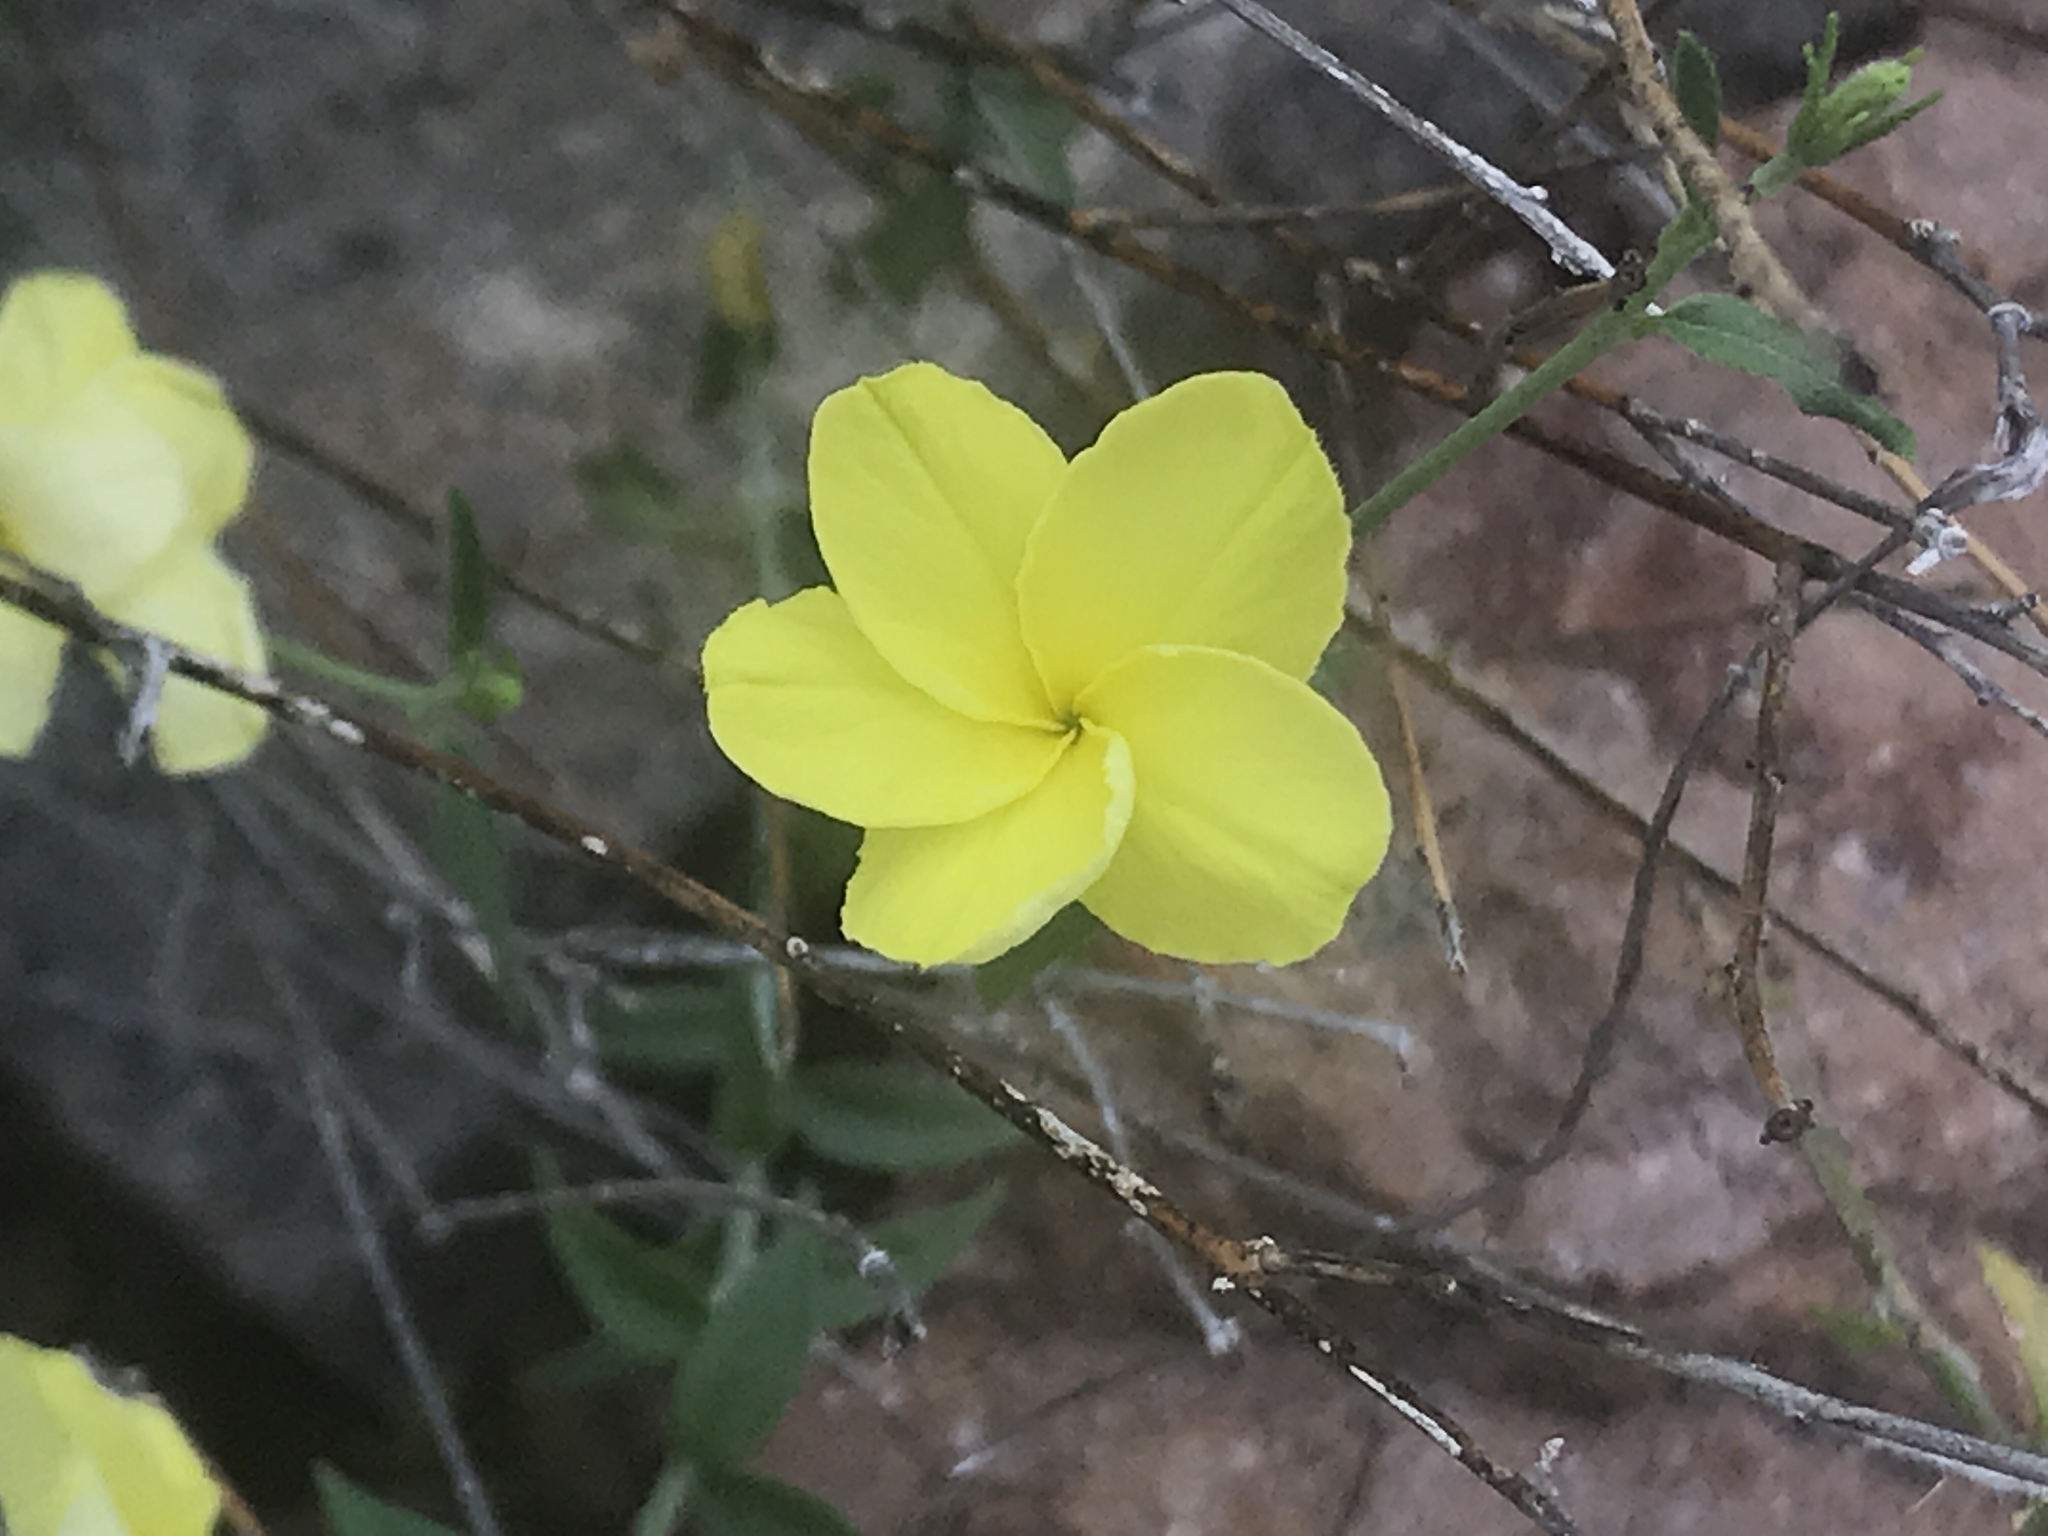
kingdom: Plantae
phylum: Tracheophyta
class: Magnoliopsida
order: Gentianales
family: Apocynaceae
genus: Haplophyton
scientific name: Haplophyton crooksii
